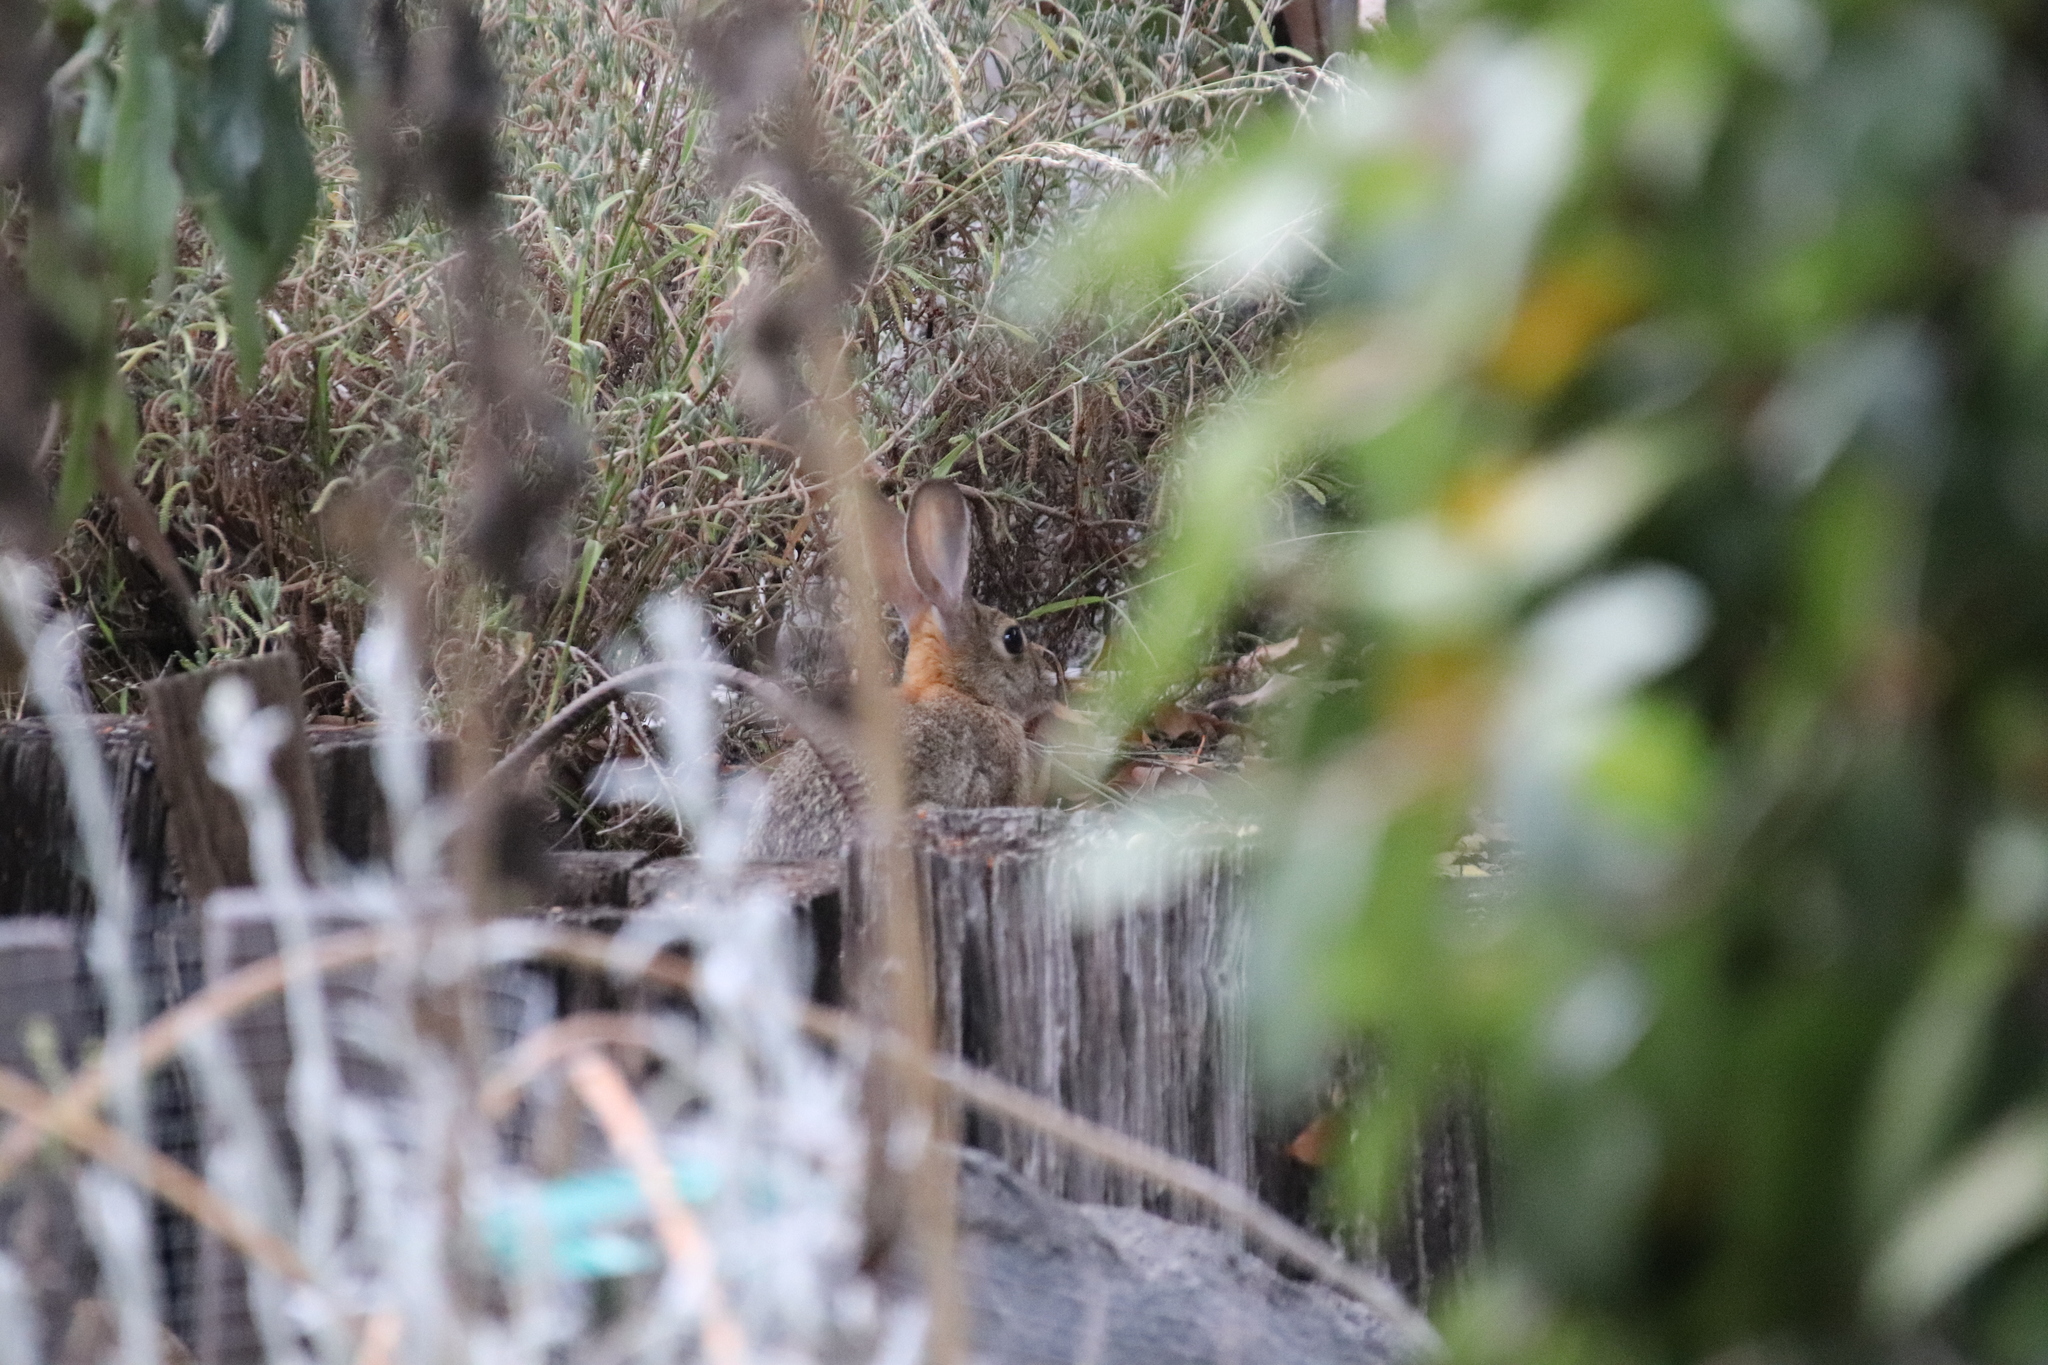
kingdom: Animalia
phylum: Chordata
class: Mammalia
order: Lagomorpha
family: Leporidae
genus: Sylvilagus
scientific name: Sylvilagus audubonii
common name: Desert cottontail
